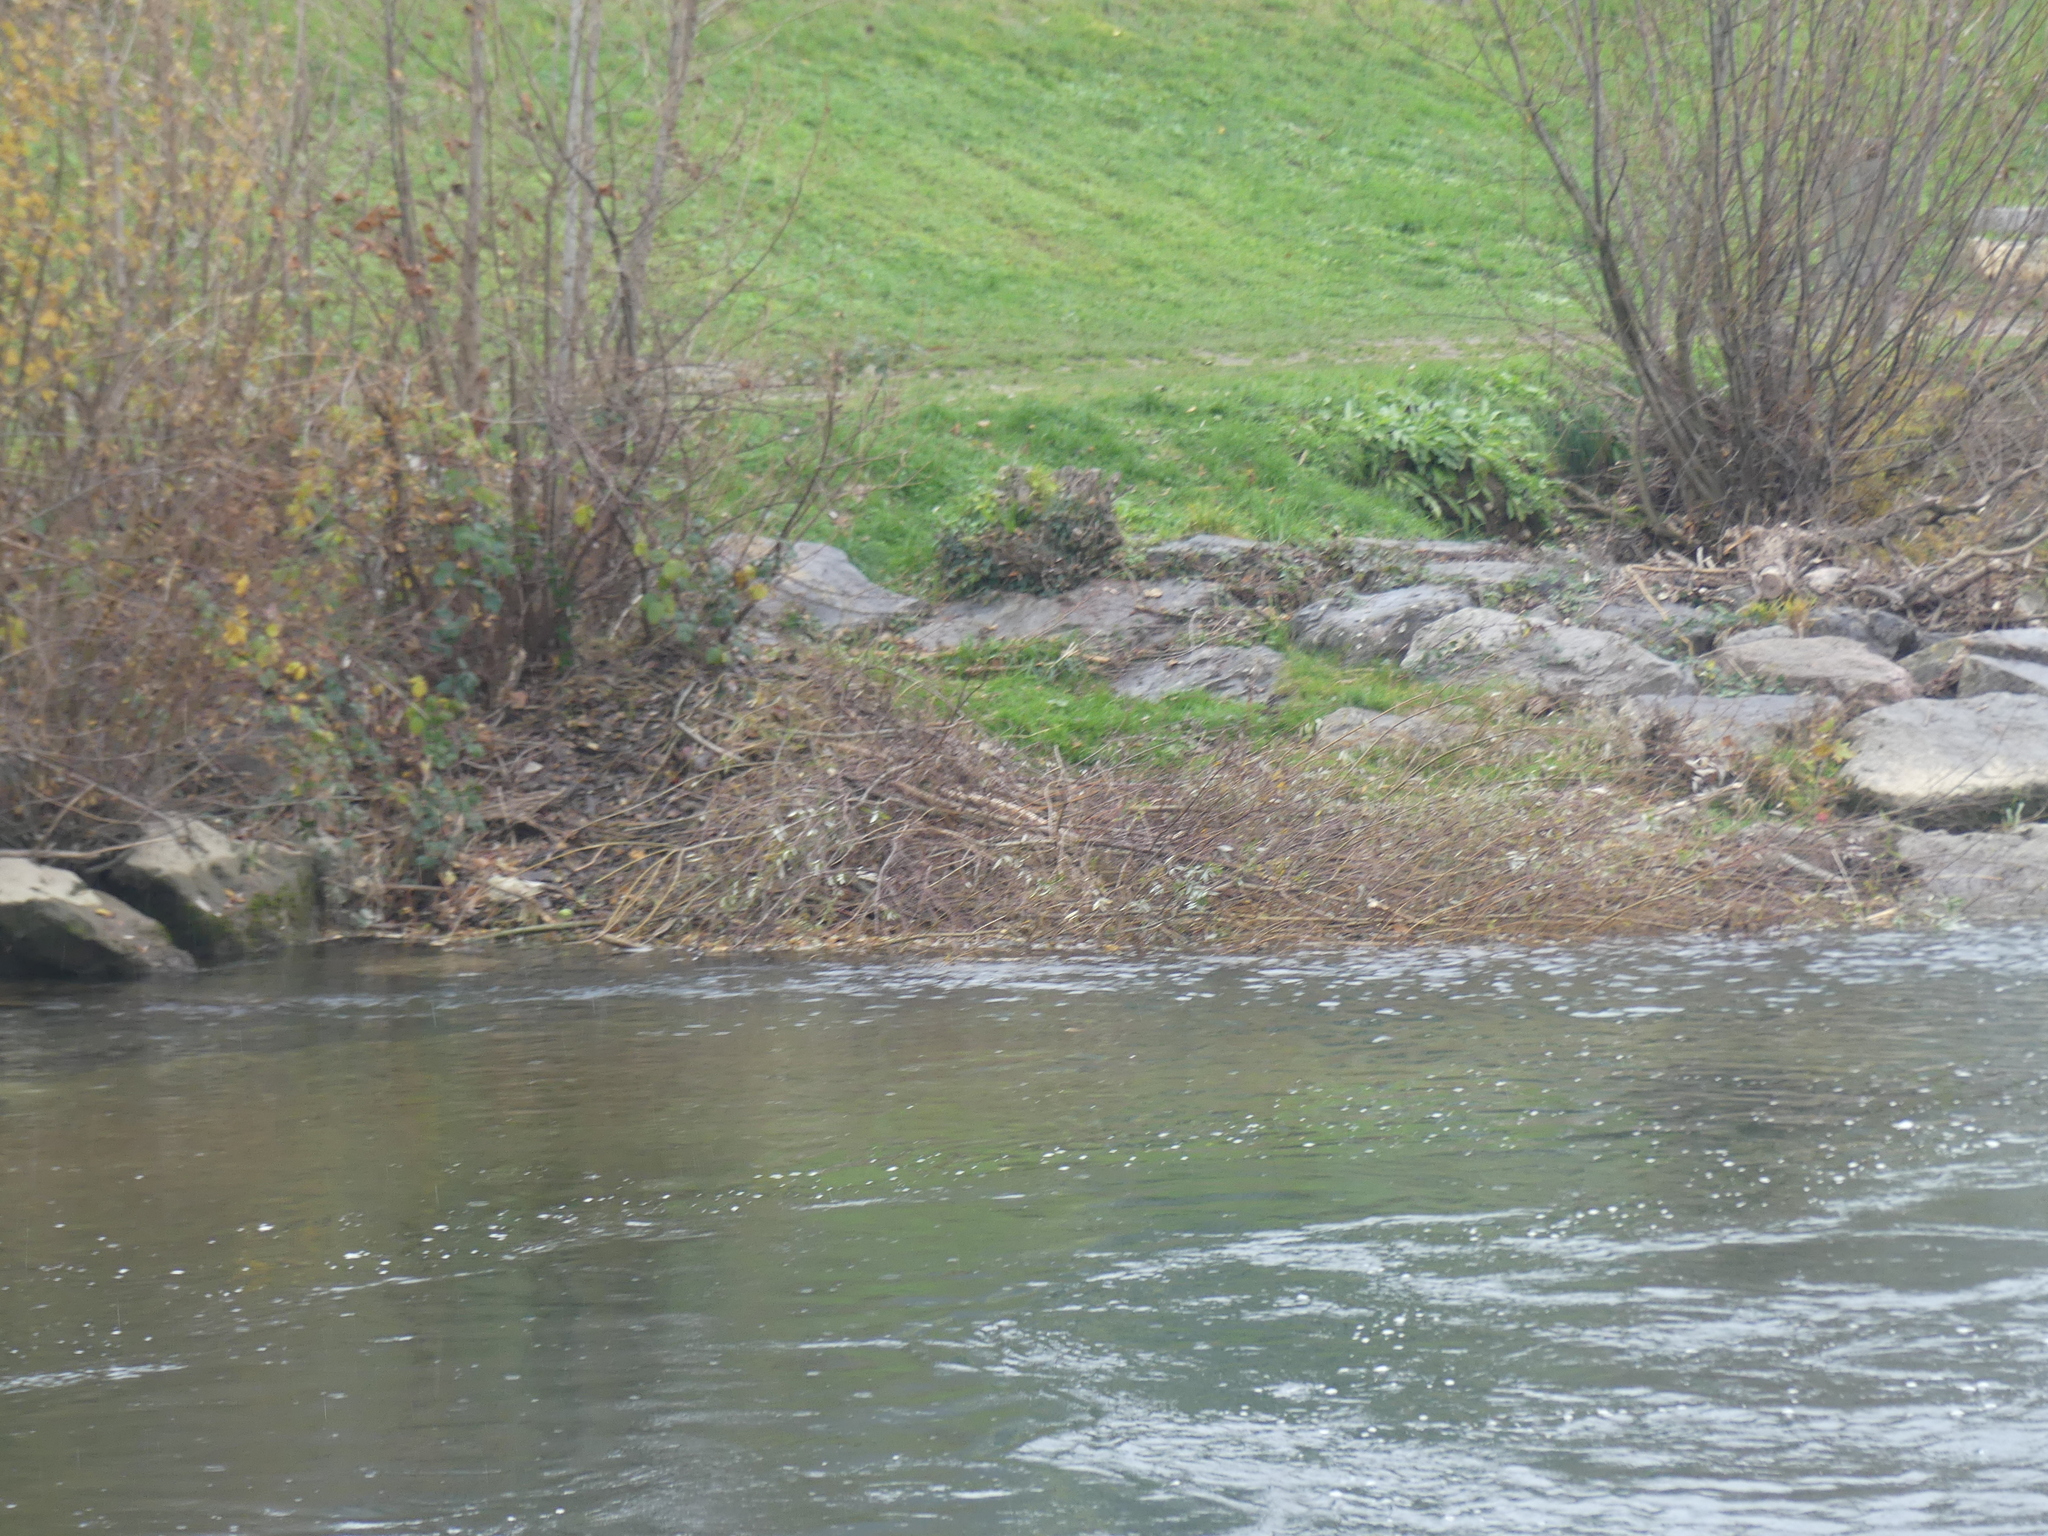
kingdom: Animalia
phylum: Chordata
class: Mammalia
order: Rodentia
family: Castoridae
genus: Castor
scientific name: Castor fiber
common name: Eurasian beaver
